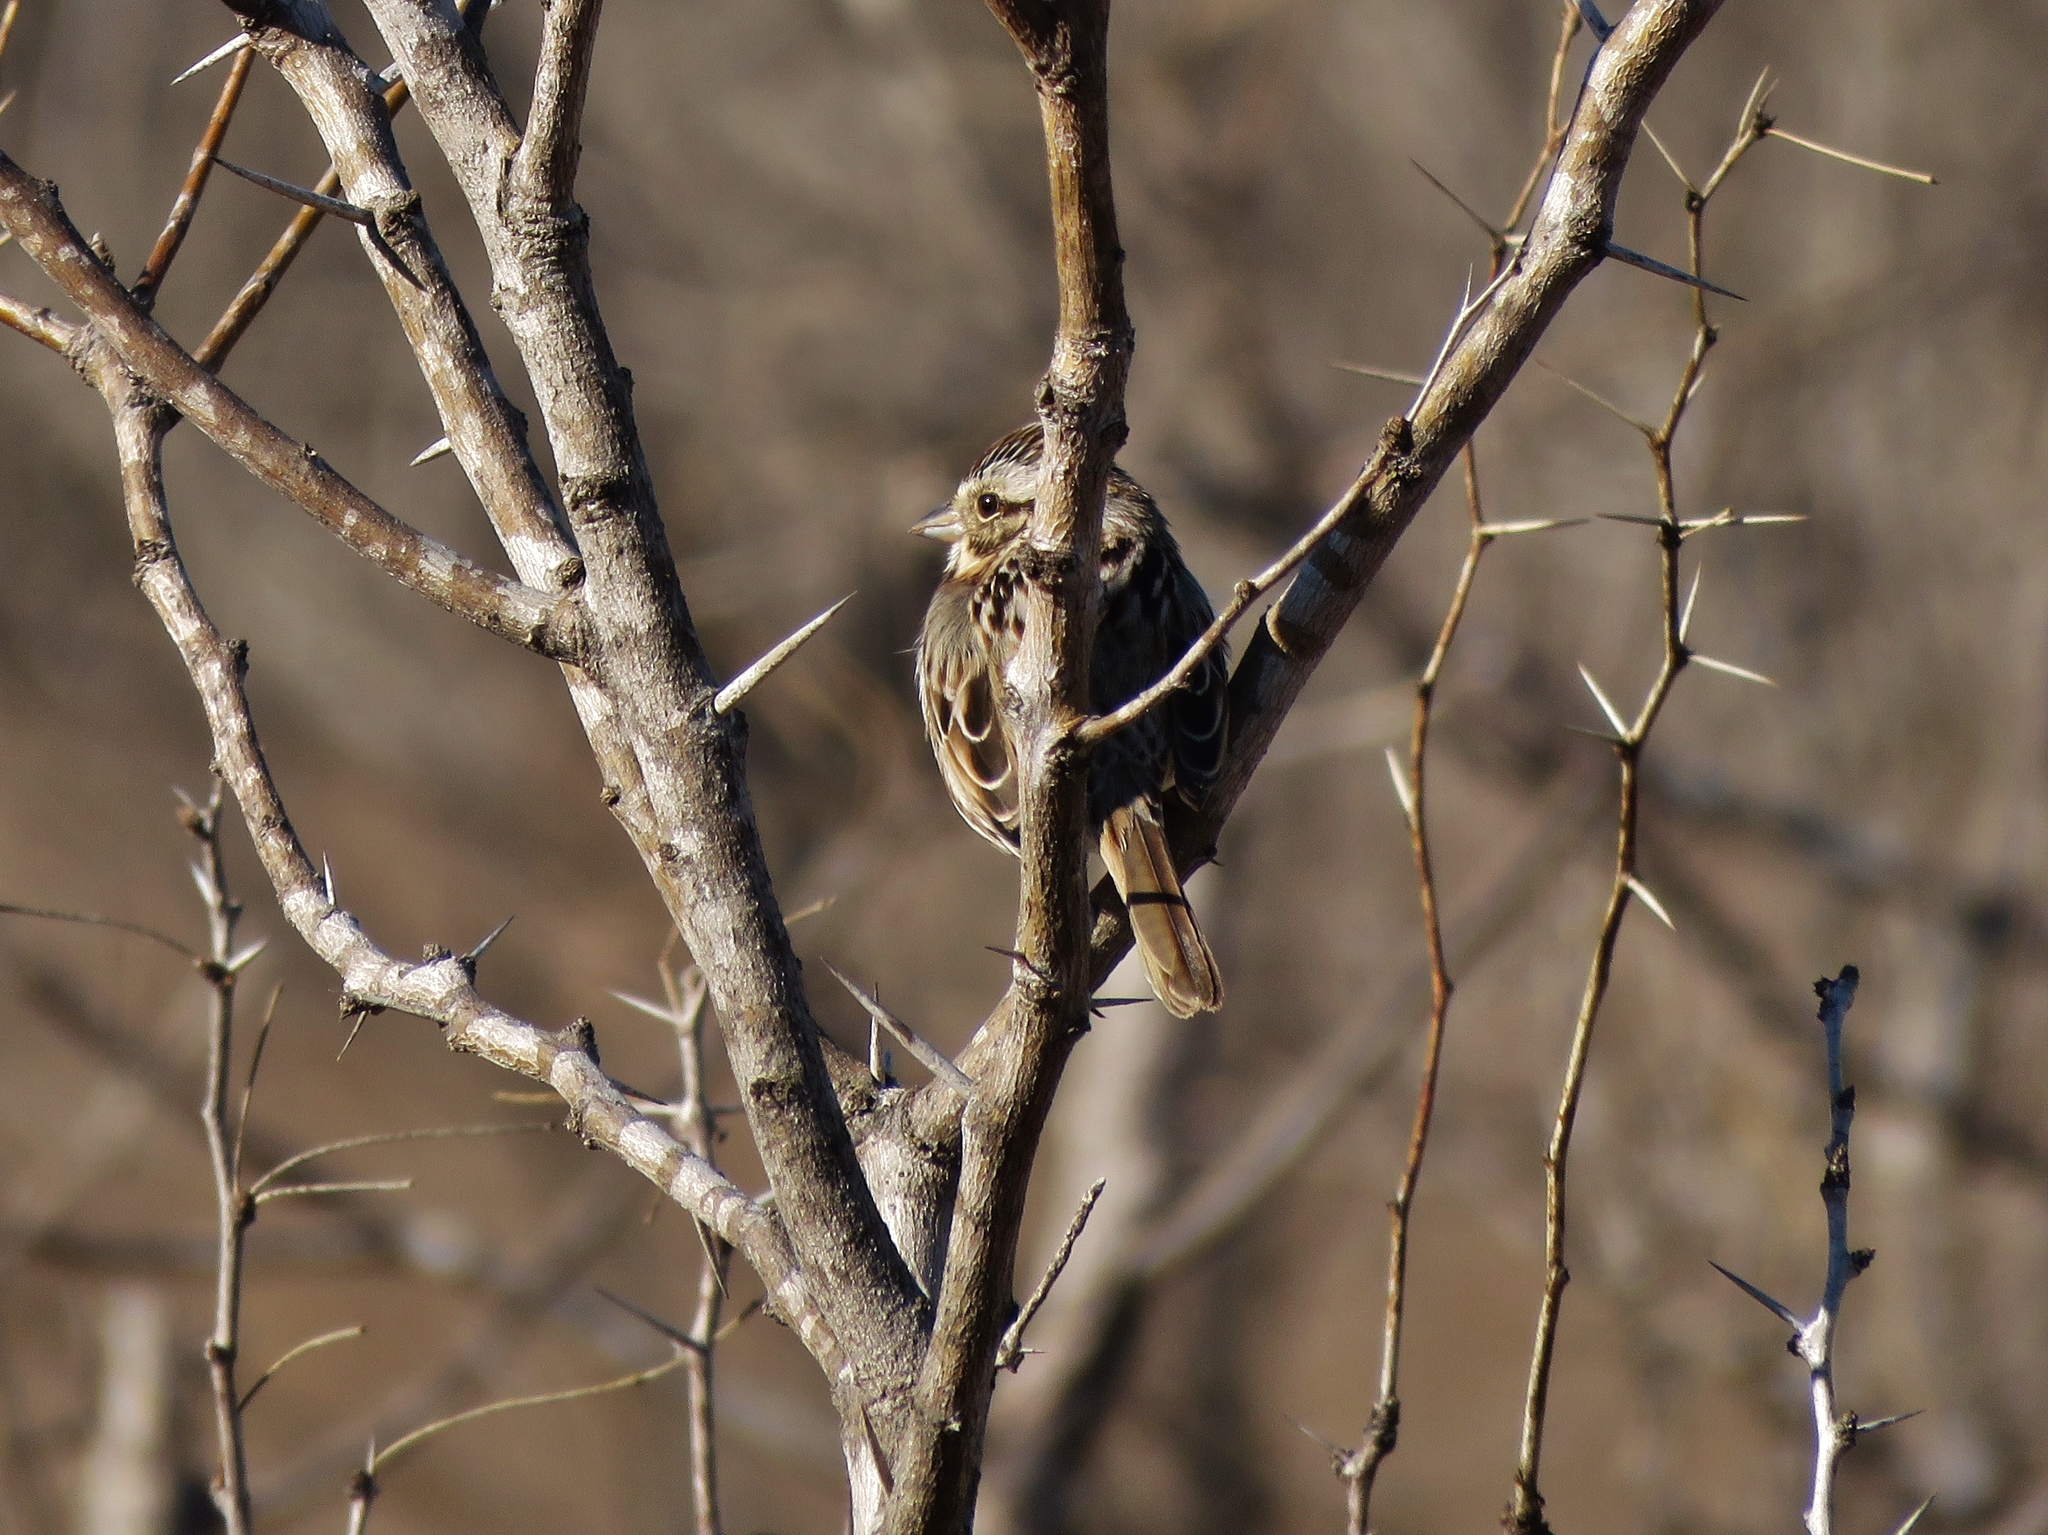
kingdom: Animalia
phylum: Chordata
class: Aves
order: Passeriformes
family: Passerellidae
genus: Melospiza
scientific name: Melospiza melodia
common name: Song sparrow
